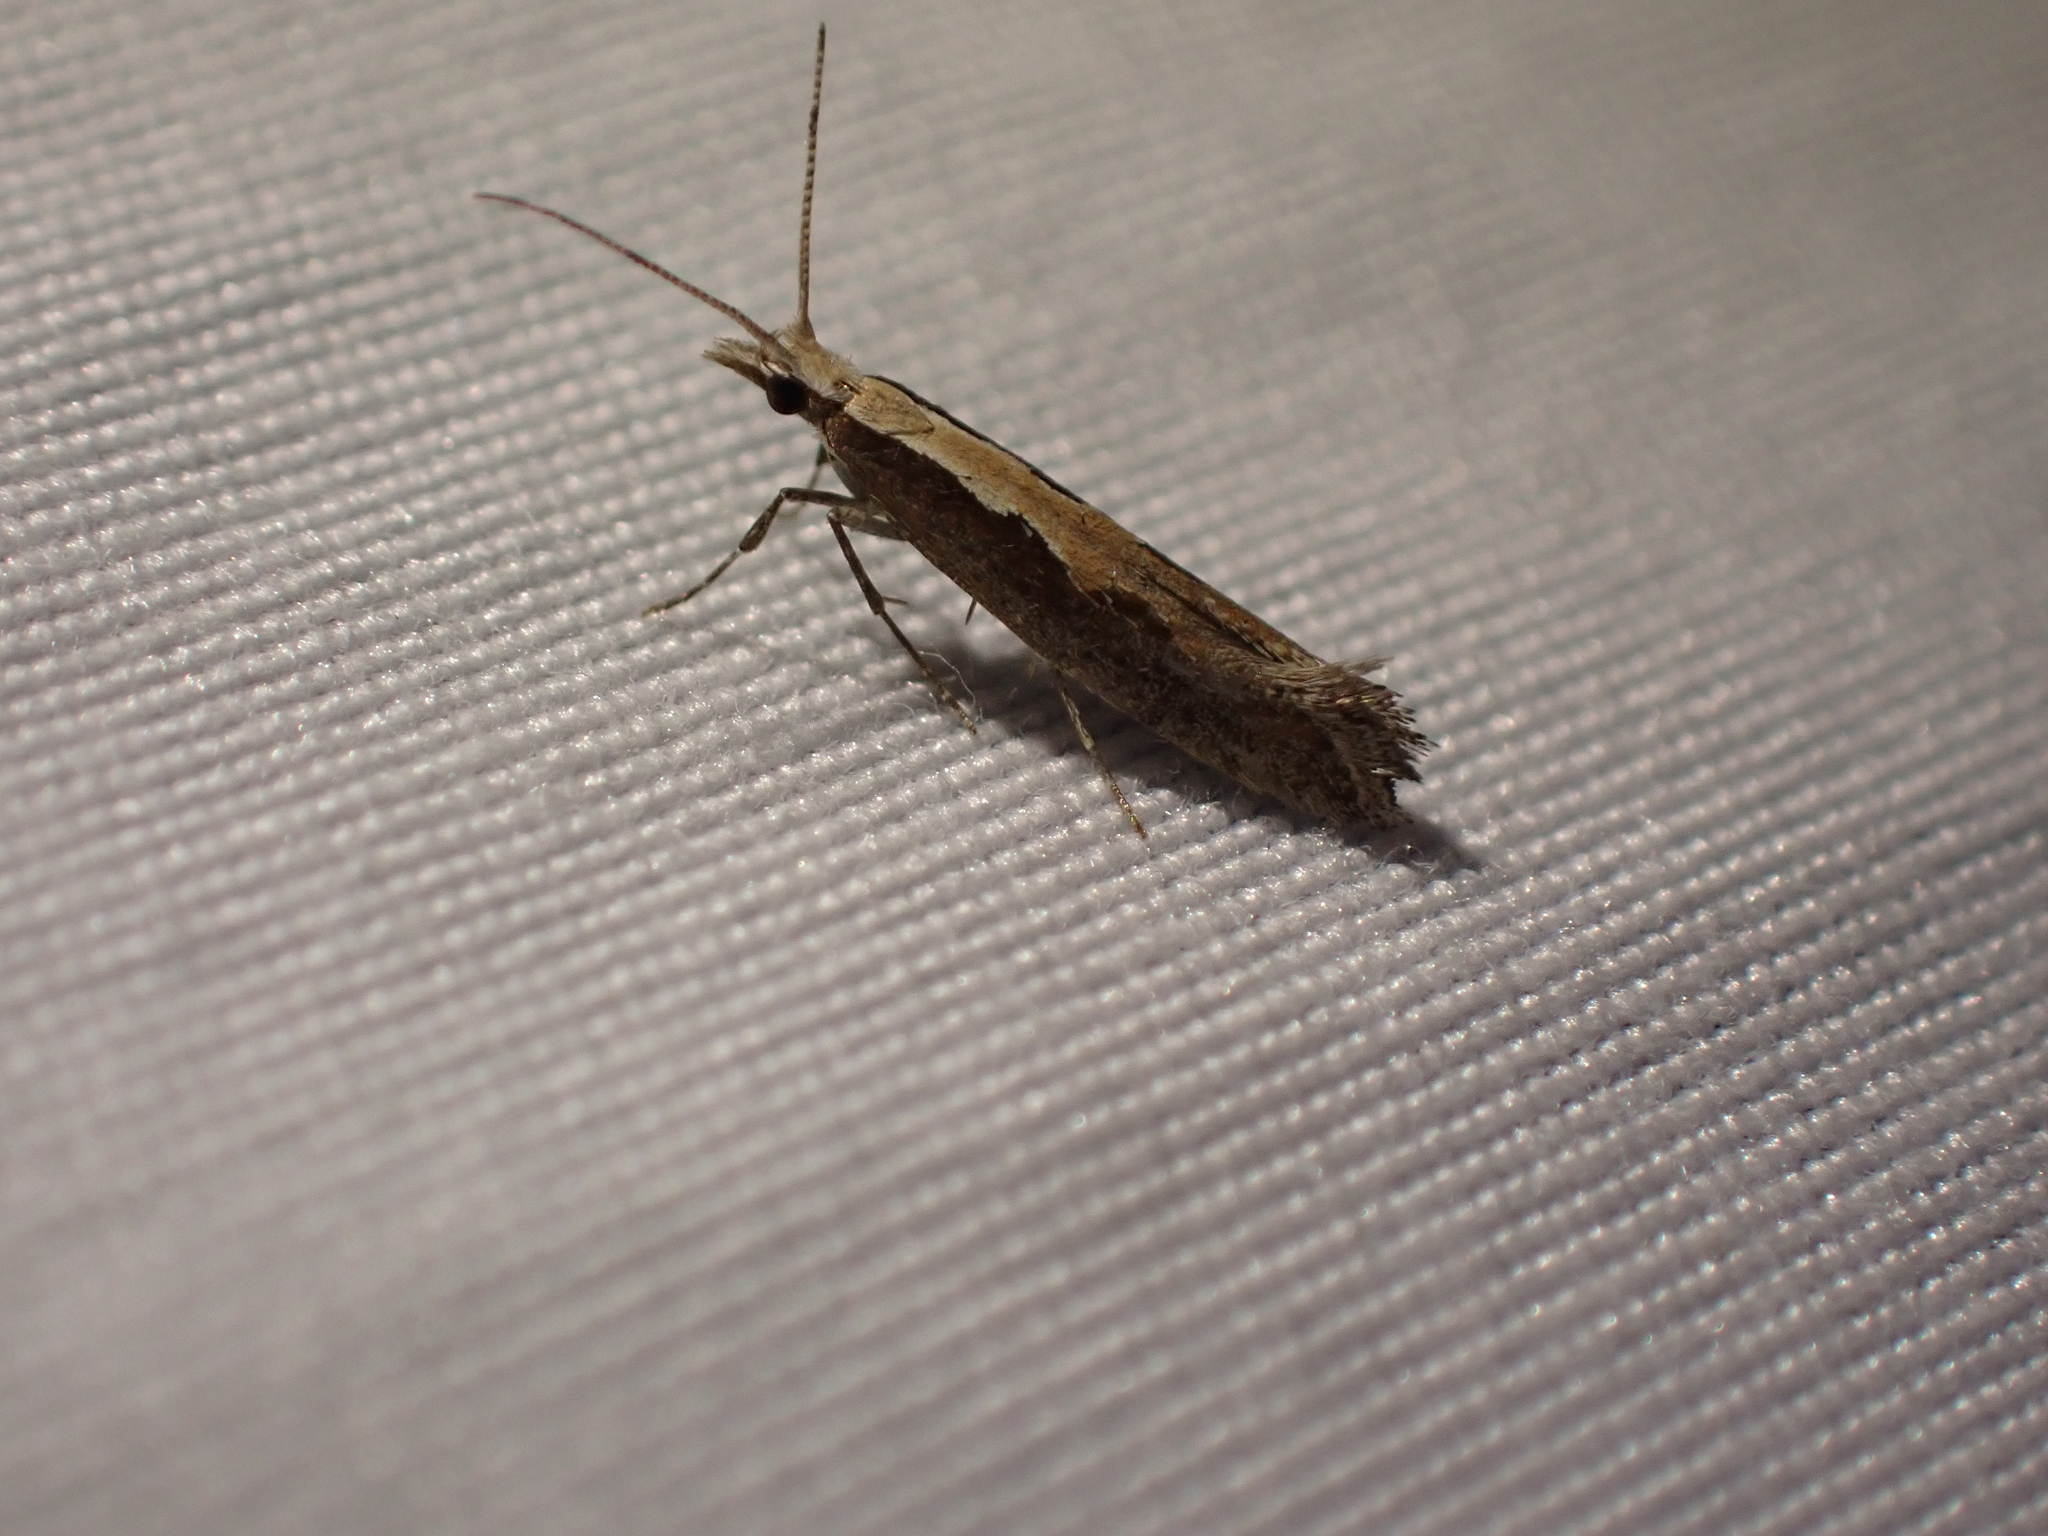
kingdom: Animalia
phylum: Arthropoda
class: Insecta
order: Lepidoptera
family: Plutellidae
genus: Plutella
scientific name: Plutella xylostella
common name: Diamond-back moth
